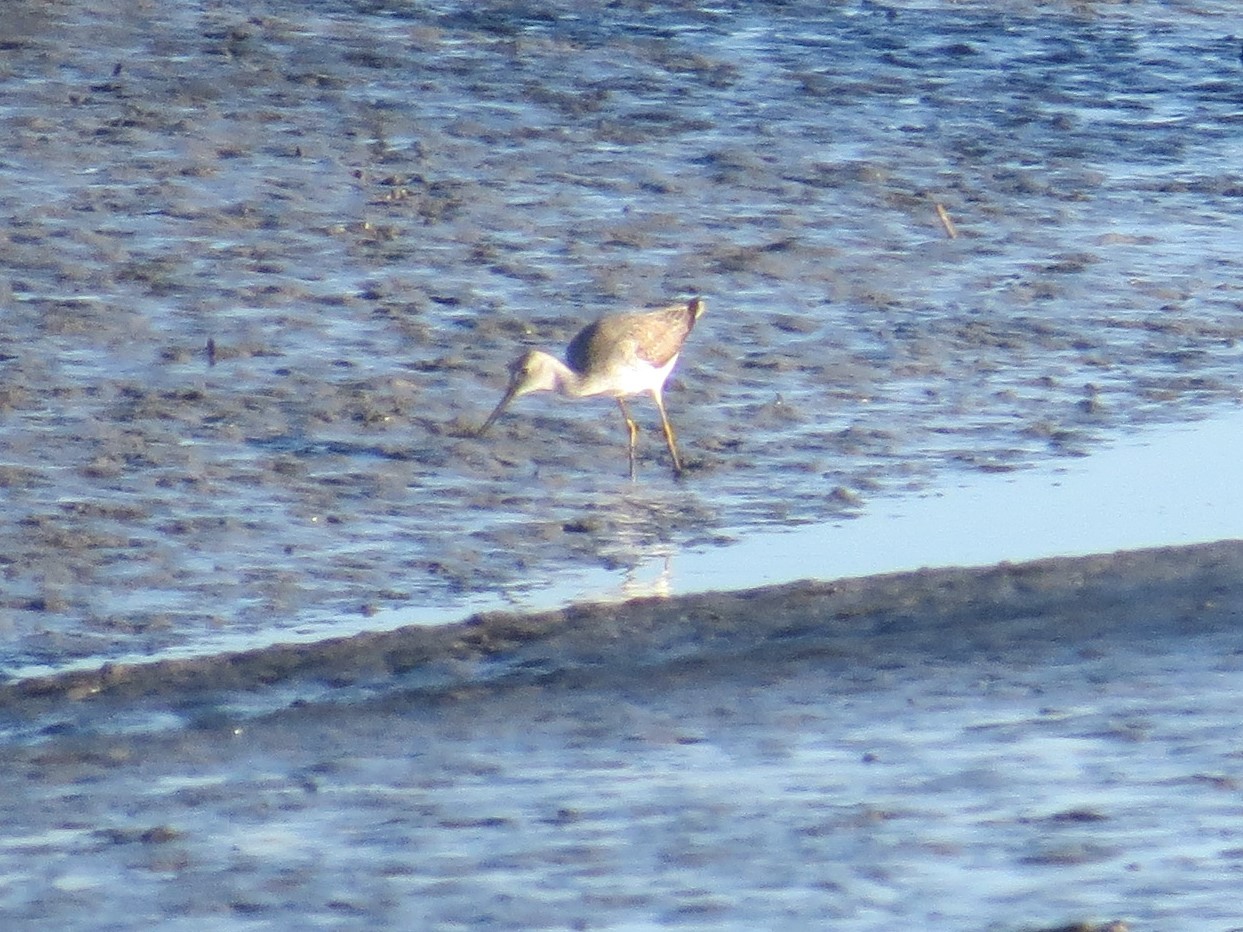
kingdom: Animalia
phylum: Chordata
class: Aves
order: Charadriiformes
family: Scolopacidae
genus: Tringa
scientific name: Tringa melanoleuca
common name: Greater yellowlegs
